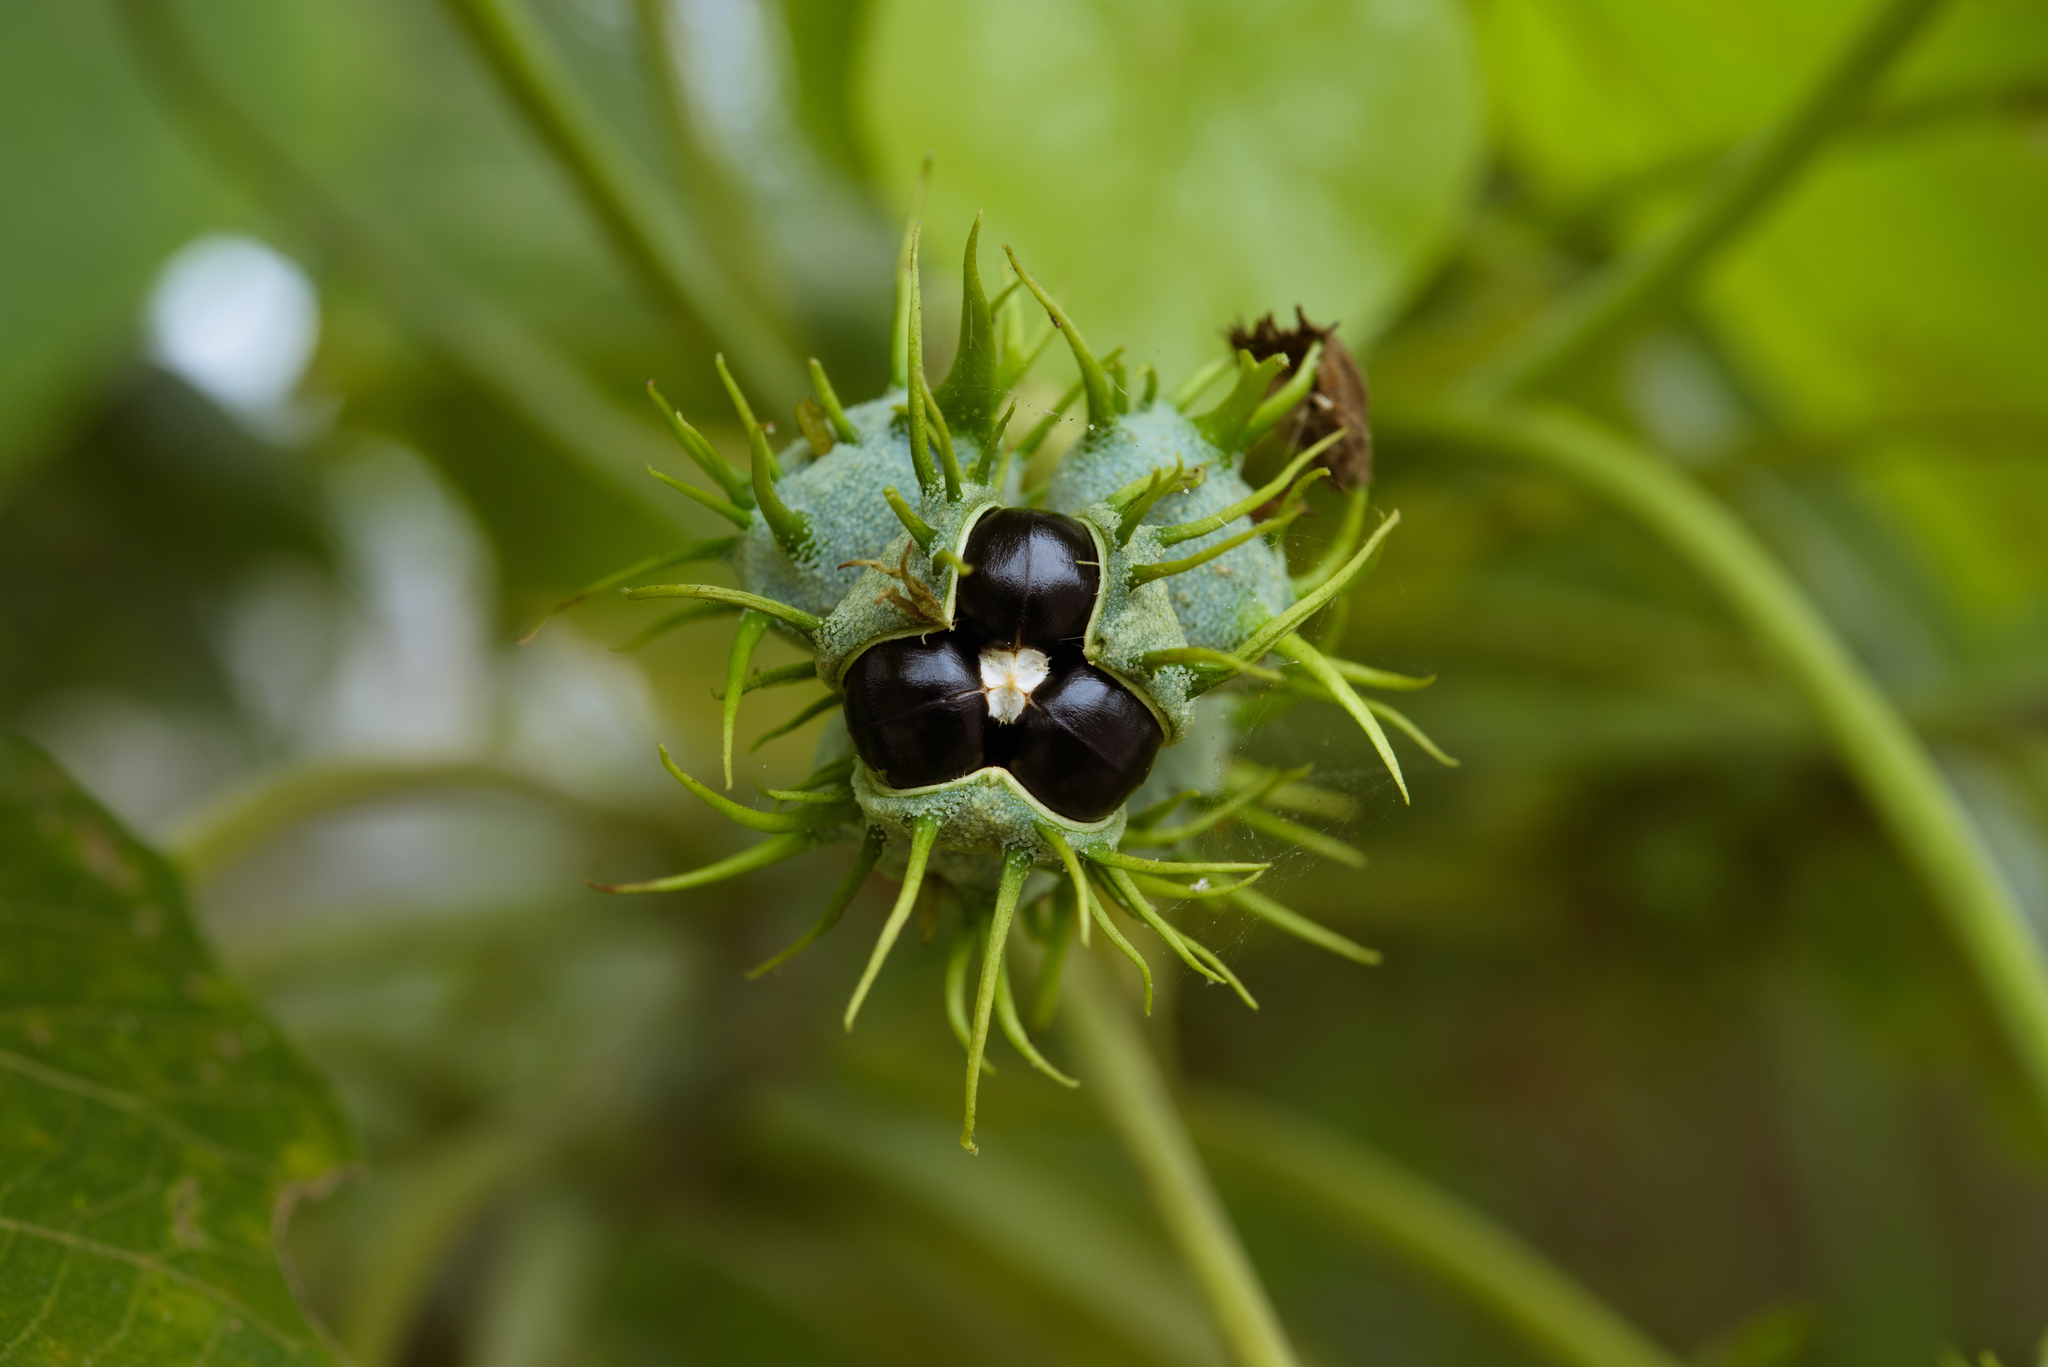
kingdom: Plantae
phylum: Tracheophyta
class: Magnoliopsida
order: Malpighiales
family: Euphorbiaceae
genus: Macaranga
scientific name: Macaranga tanarius
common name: Parasol leaf tree
